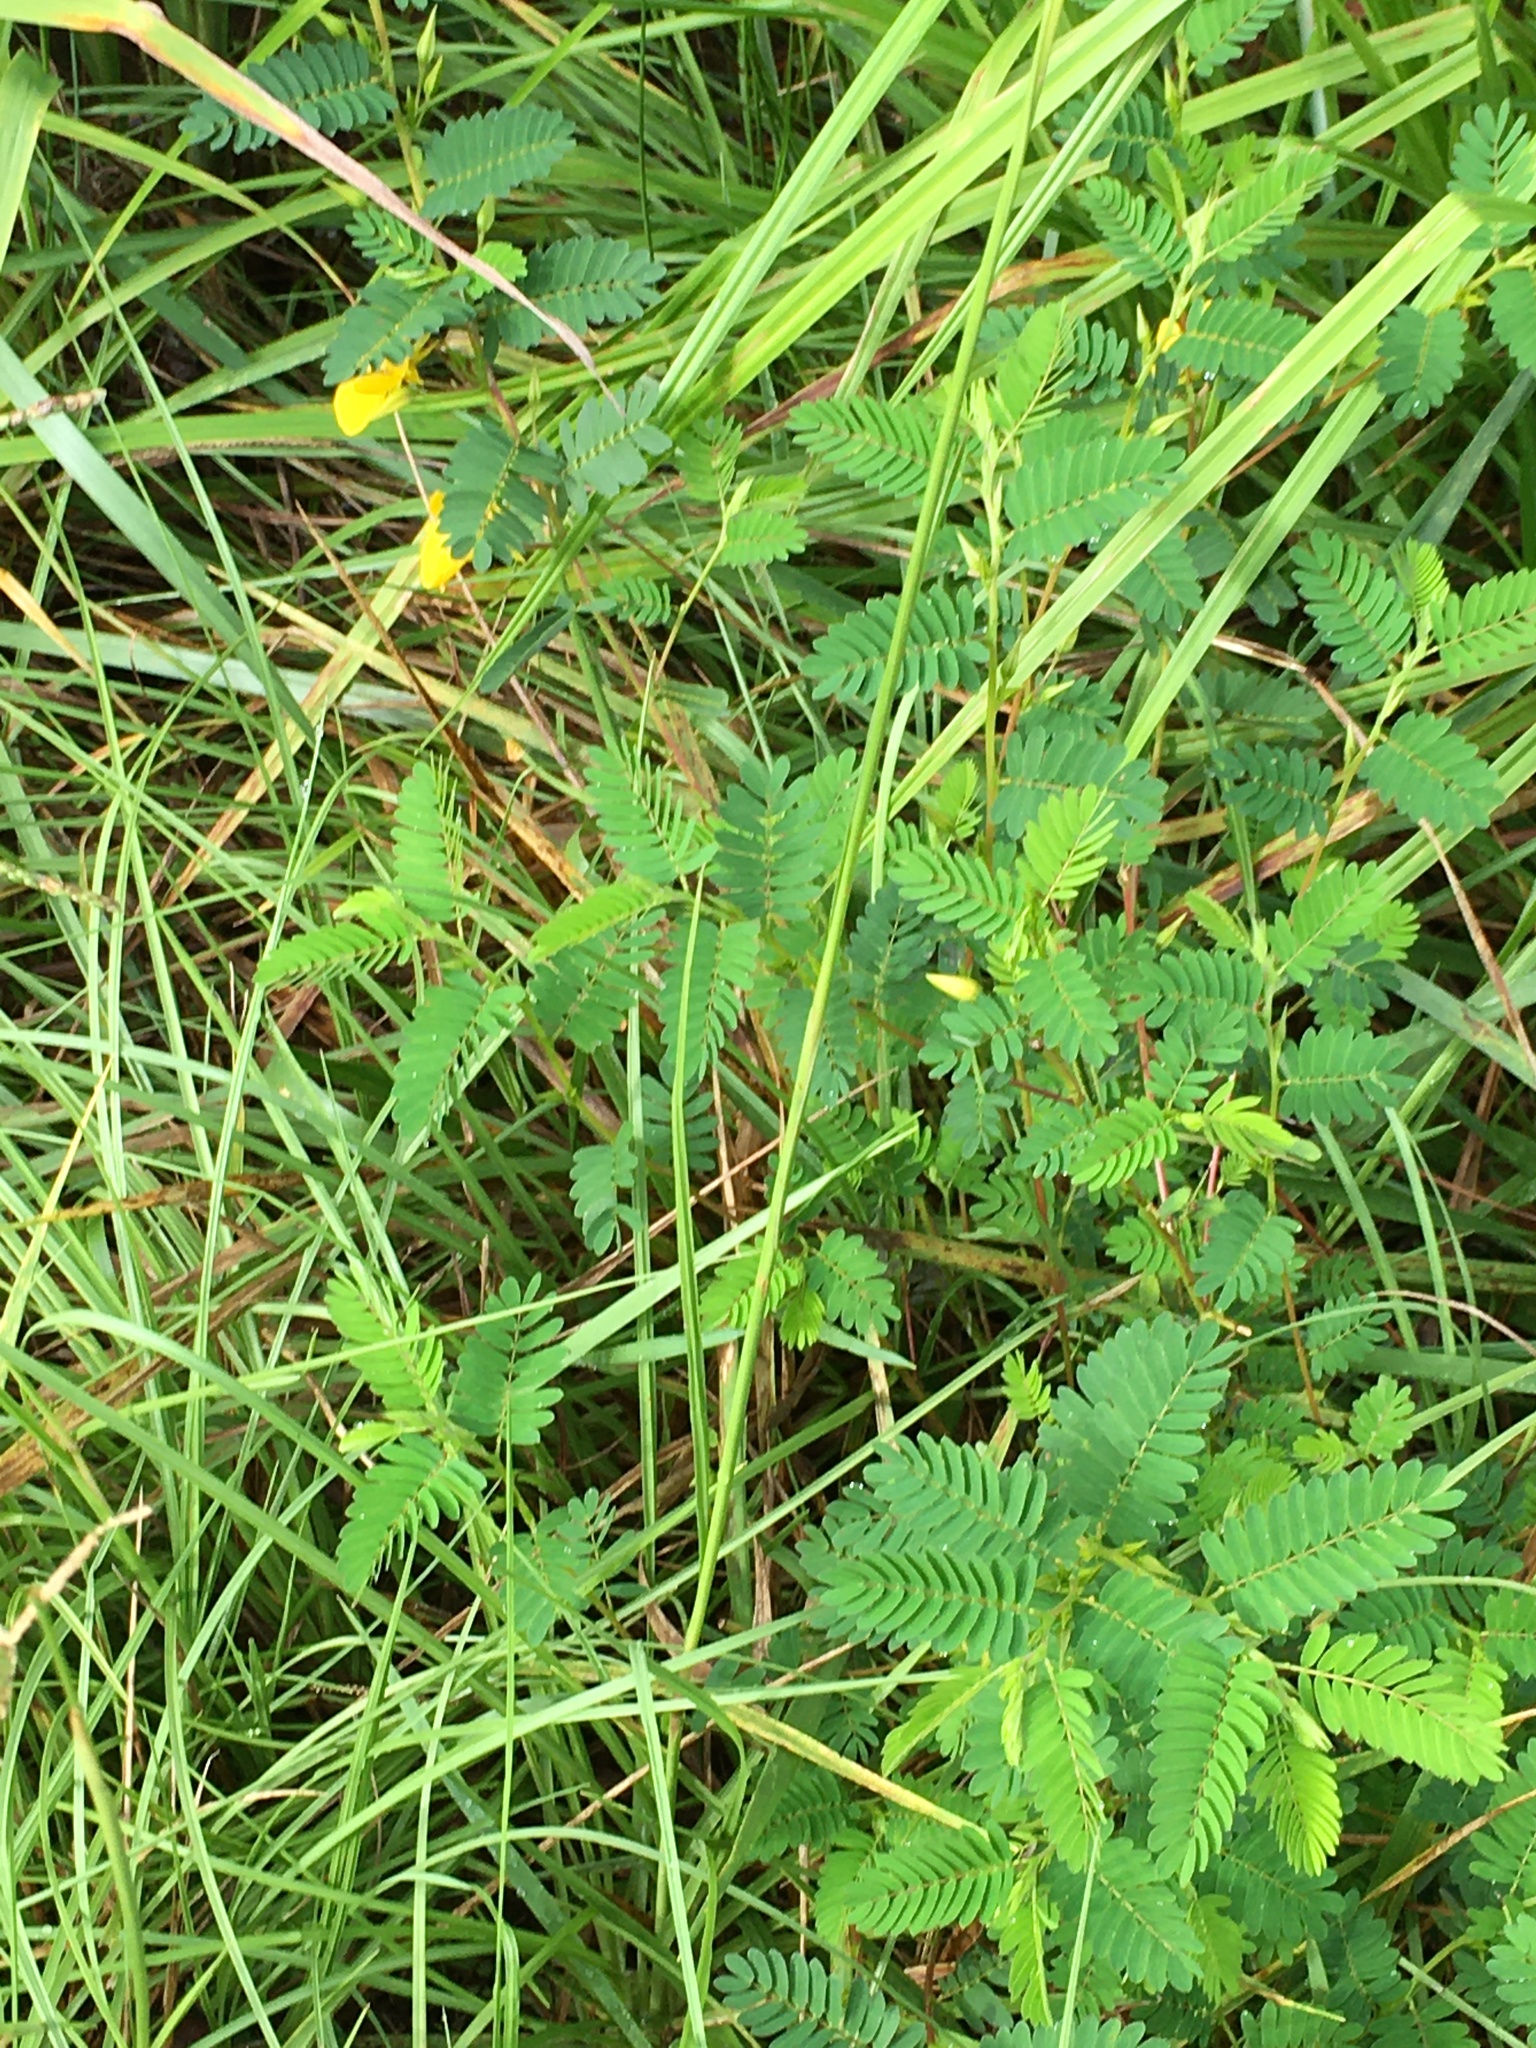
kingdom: Plantae
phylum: Tracheophyta
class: Magnoliopsida
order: Fabales
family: Fabaceae
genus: Chamaecrista
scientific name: Chamaecrista fasciculata
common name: Golden cassia
